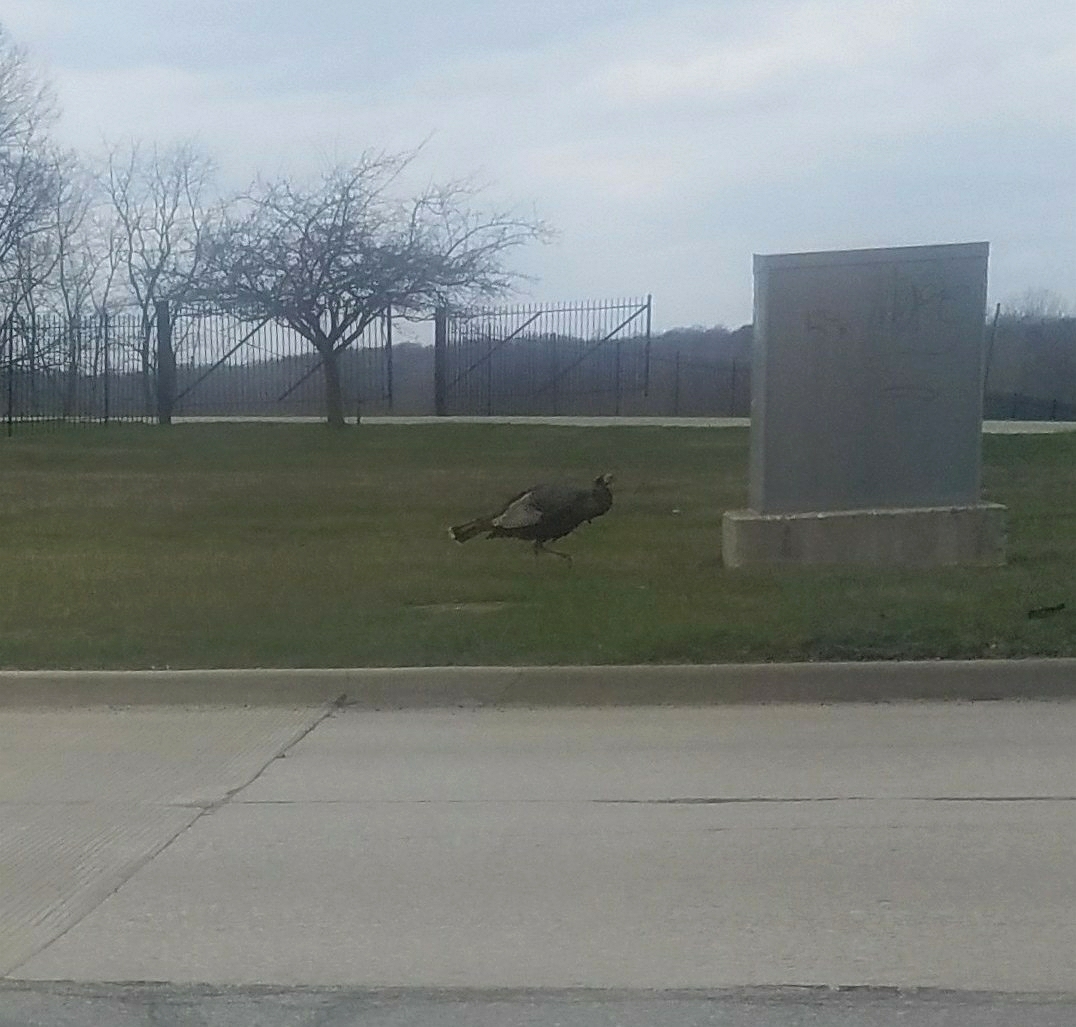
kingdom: Animalia
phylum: Chordata
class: Aves
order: Galliformes
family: Phasianidae
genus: Meleagris
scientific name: Meleagris gallopavo
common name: Wild turkey
